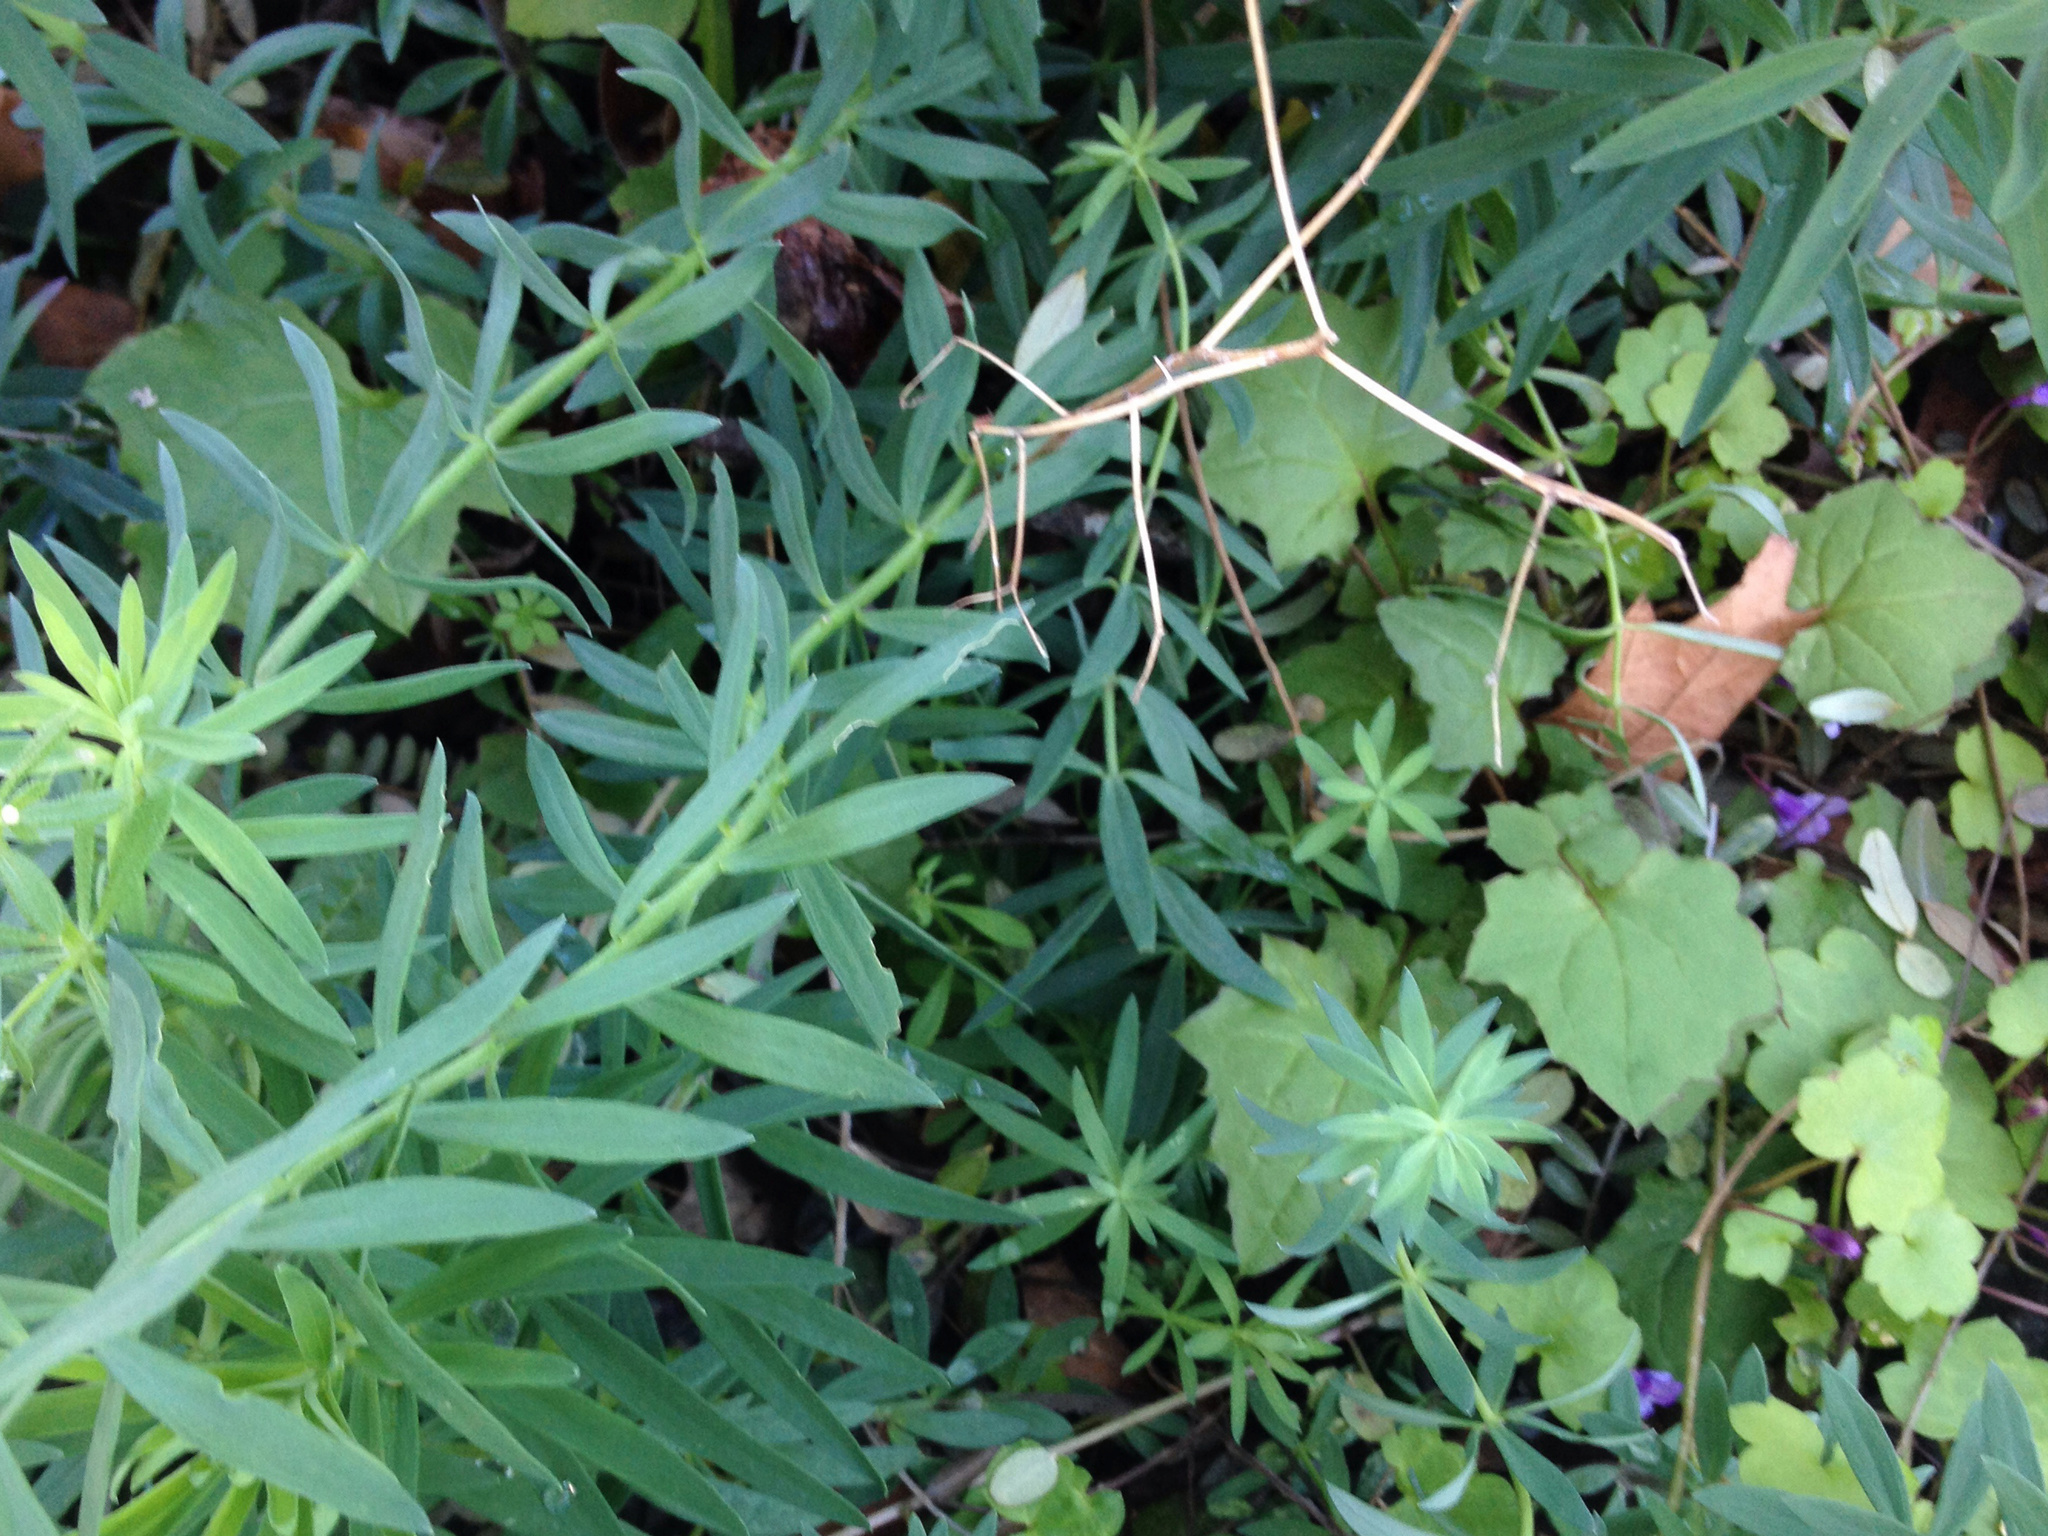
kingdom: Plantae
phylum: Tracheophyta
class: Magnoliopsida
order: Asterales
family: Asteraceae
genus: Mycelis
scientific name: Mycelis muralis
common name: Wall lettuce
